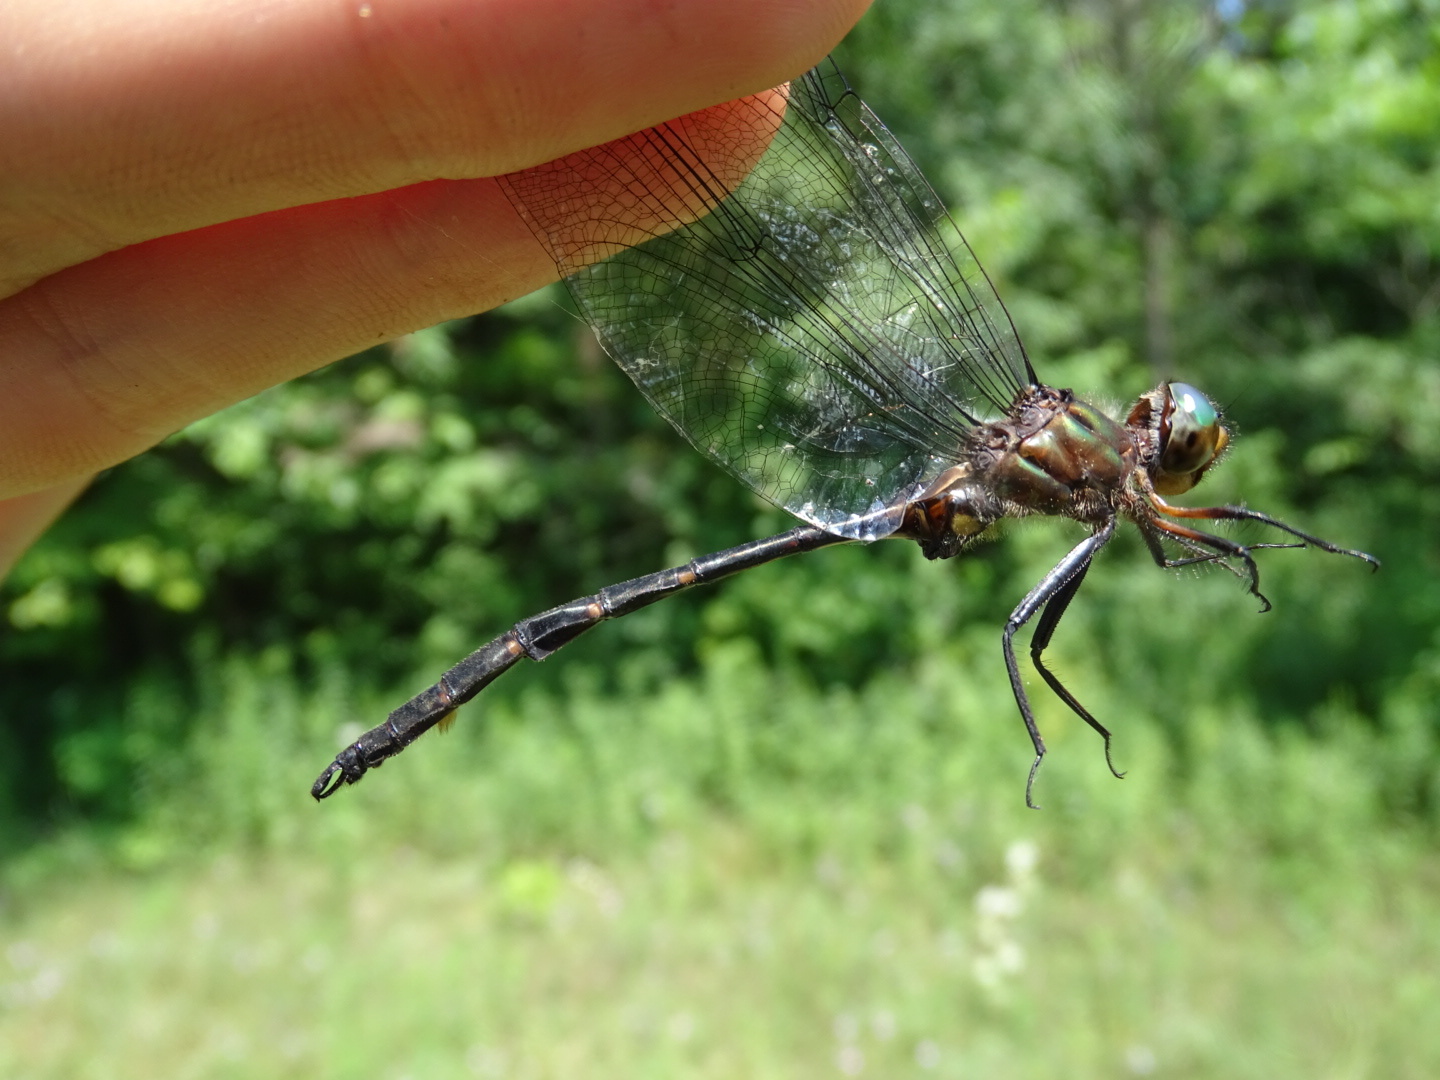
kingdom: Animalia
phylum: Arthropoda
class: Insecta
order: Odonata
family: Corduliidae
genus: Somatochlora
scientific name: Somatochlora linearis
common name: Mocha emerald
